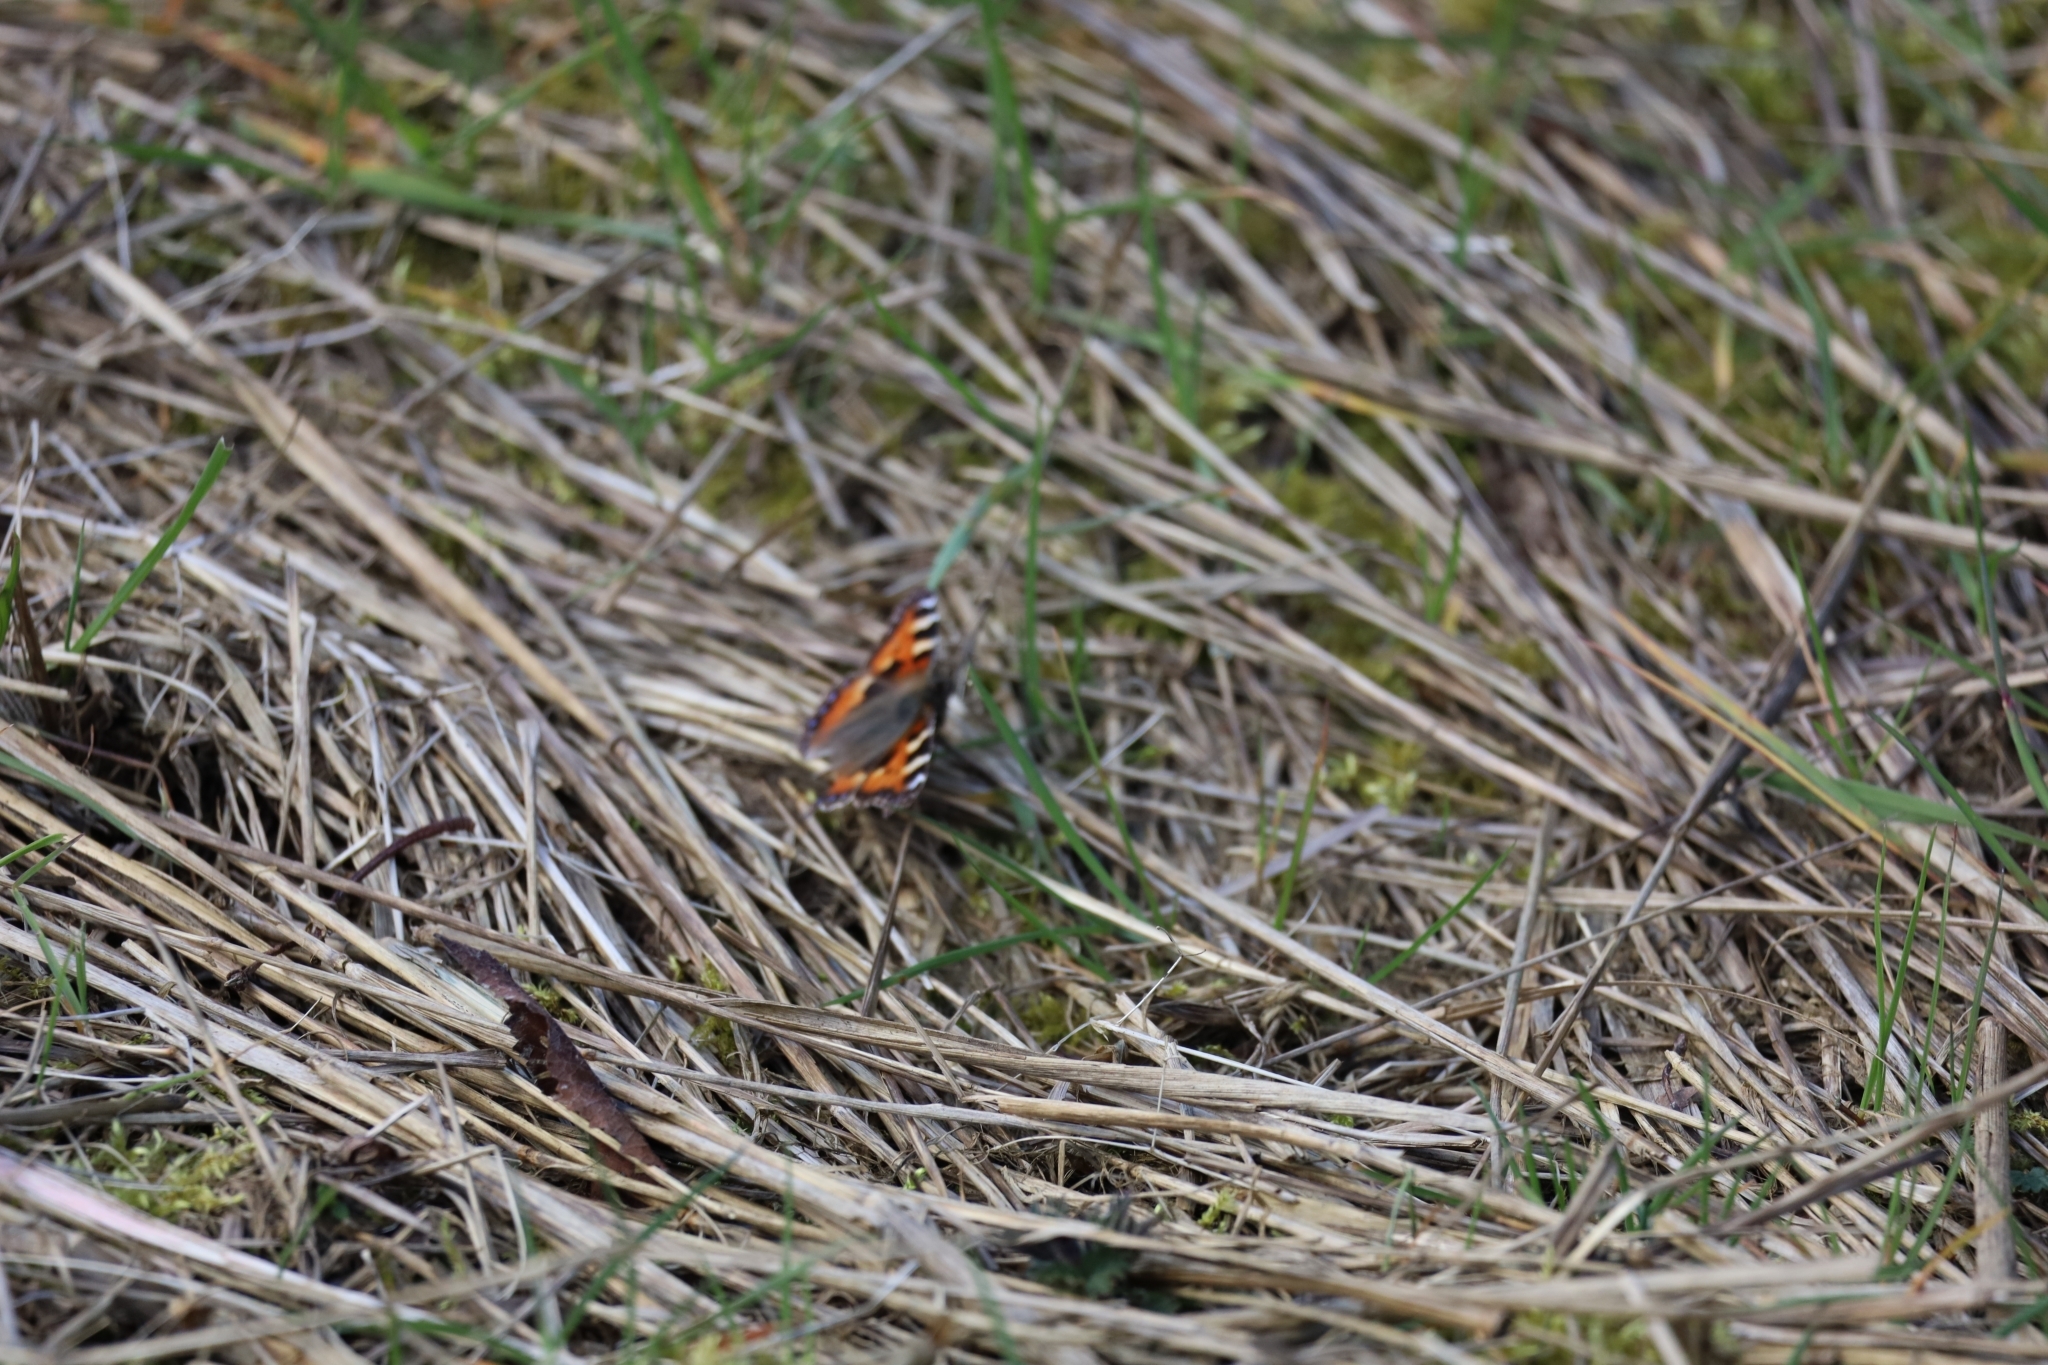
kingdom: Animalia
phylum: Arthropoda
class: Insecta
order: Lepidoptera
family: Nymphalidae
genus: Aglais
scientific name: Aglais urticae
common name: Small tortoiseshell
